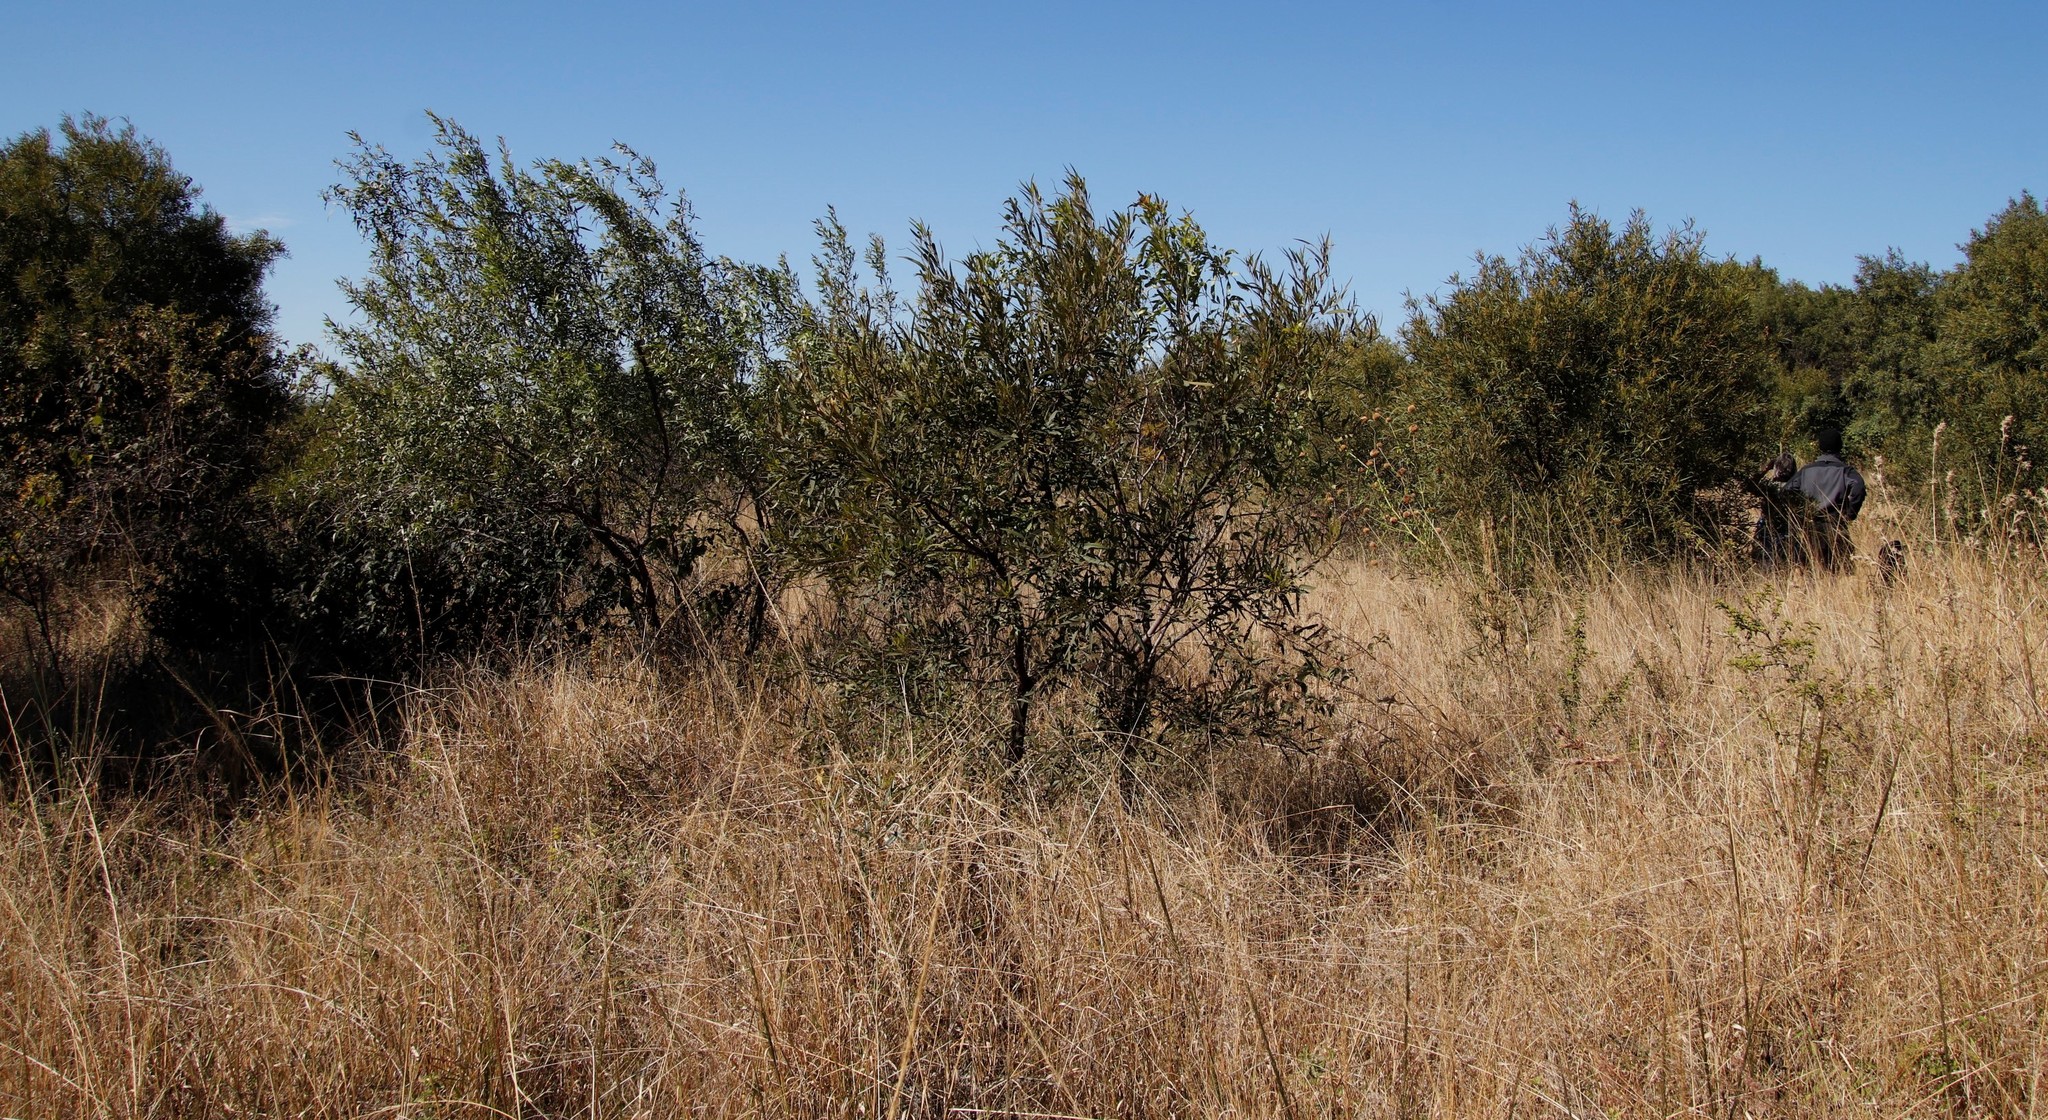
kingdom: Plantae
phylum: Tracheophyta
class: Magnoliopsida
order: Sapindales
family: Anacardiaceae
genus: Searsia
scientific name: Searsia lancea
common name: Cashew
